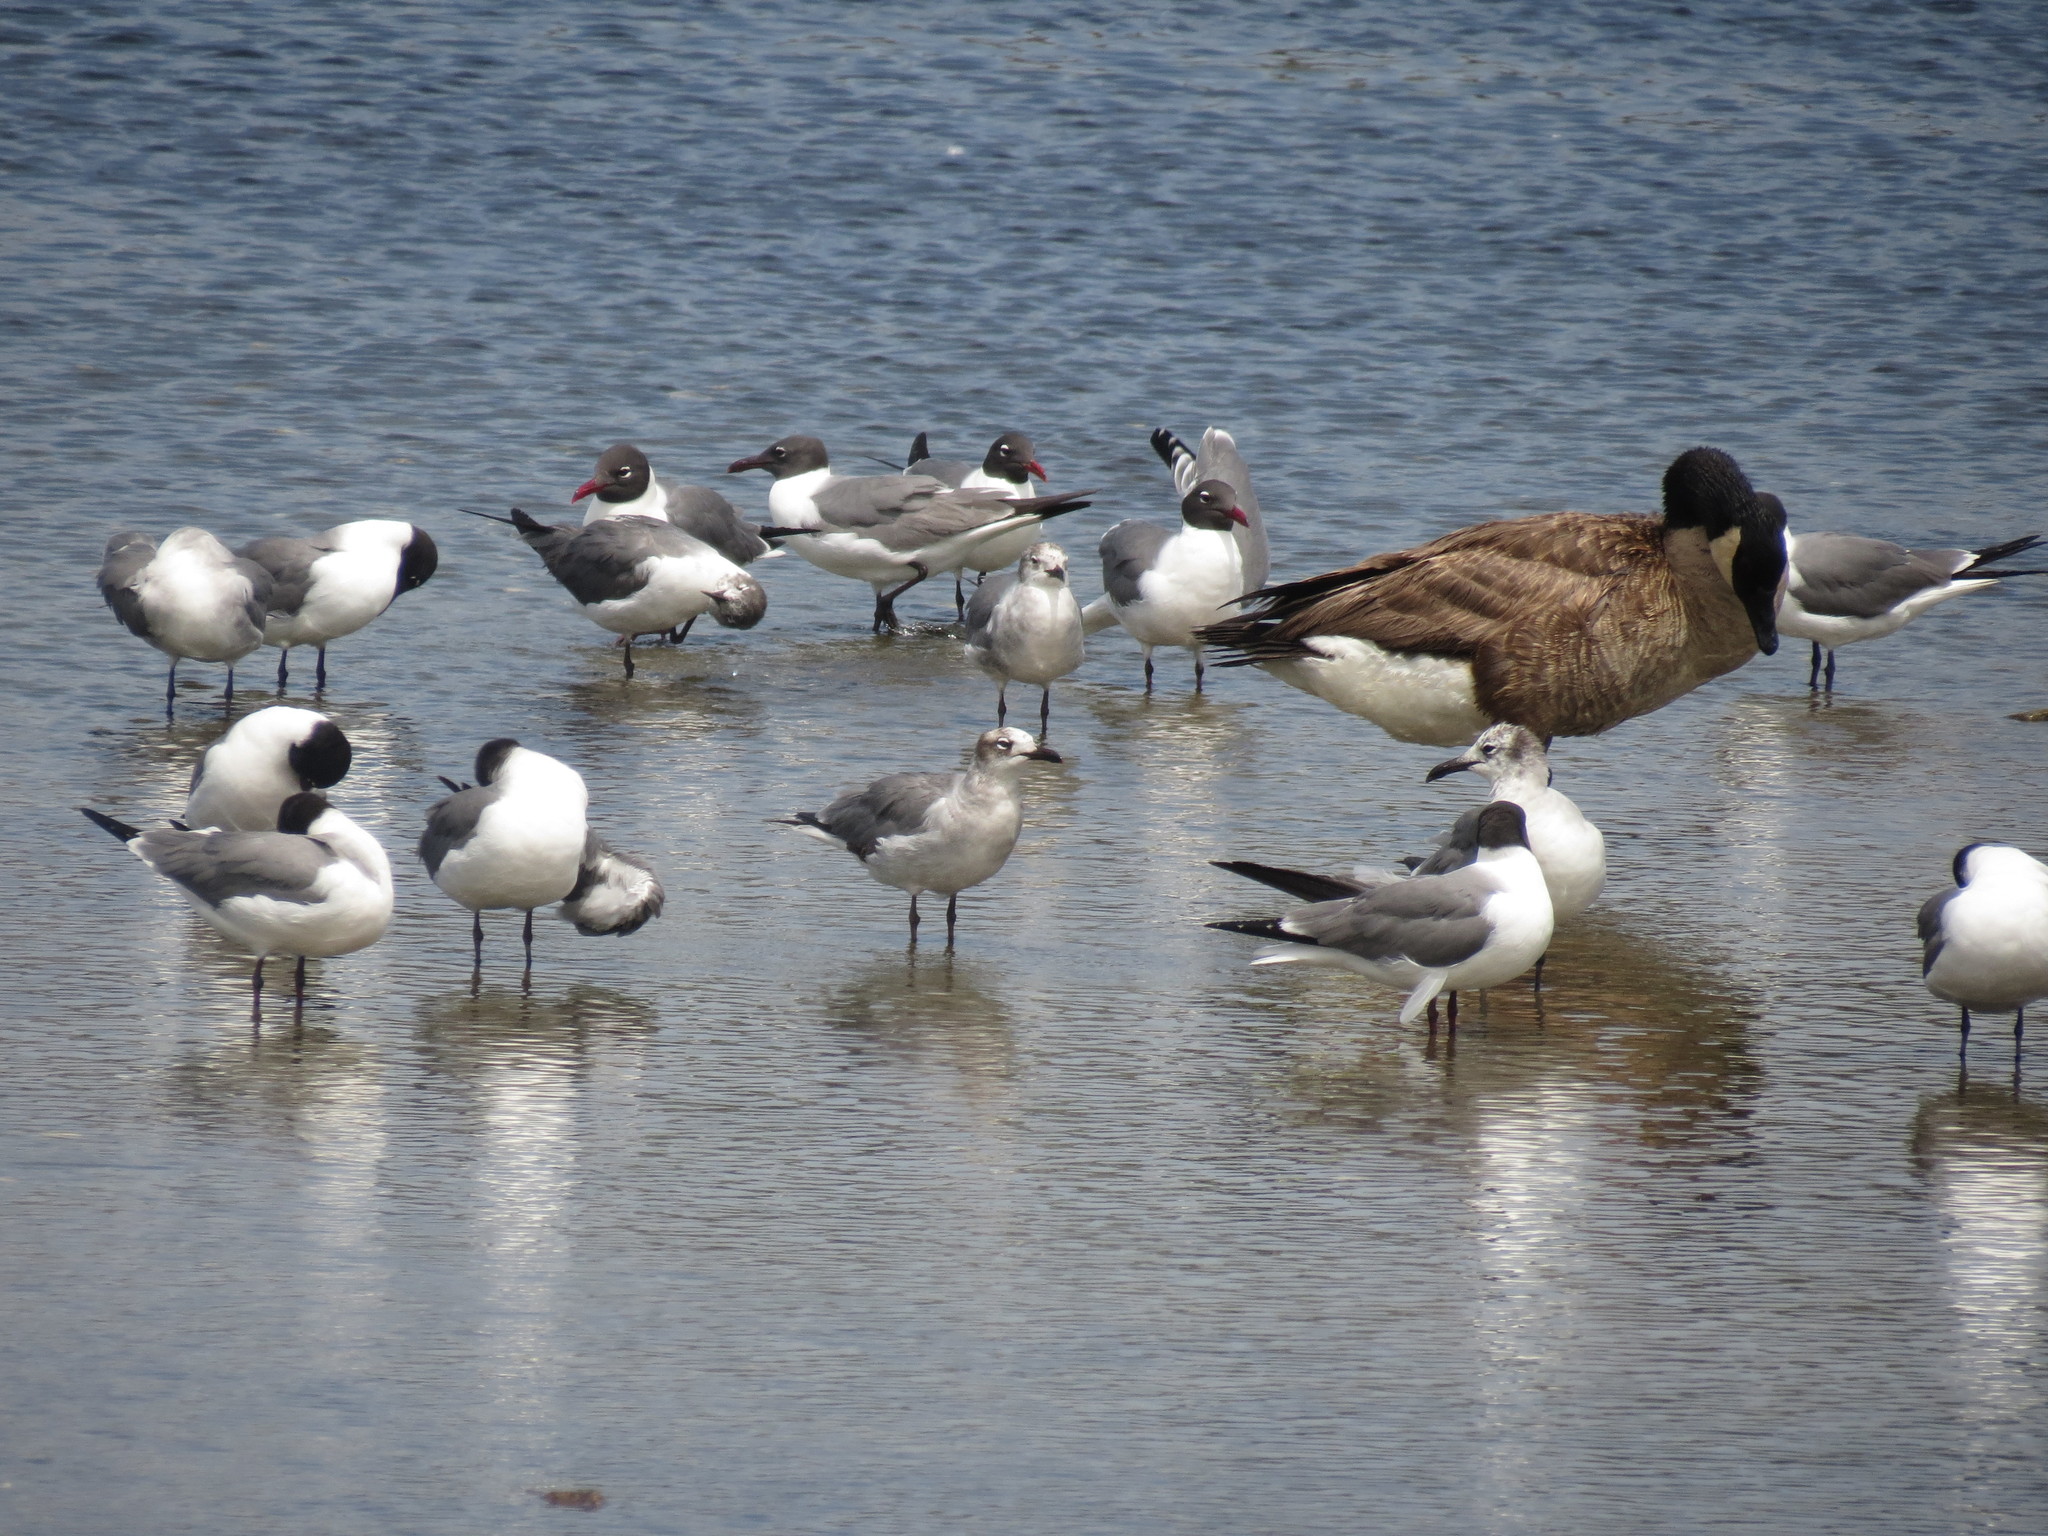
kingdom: Animalia
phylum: Chordata
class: Aves
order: Charadriiformes
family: Laridae
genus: Leucophaeus
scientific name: Leucophaeus atricilla
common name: Laughing gull
